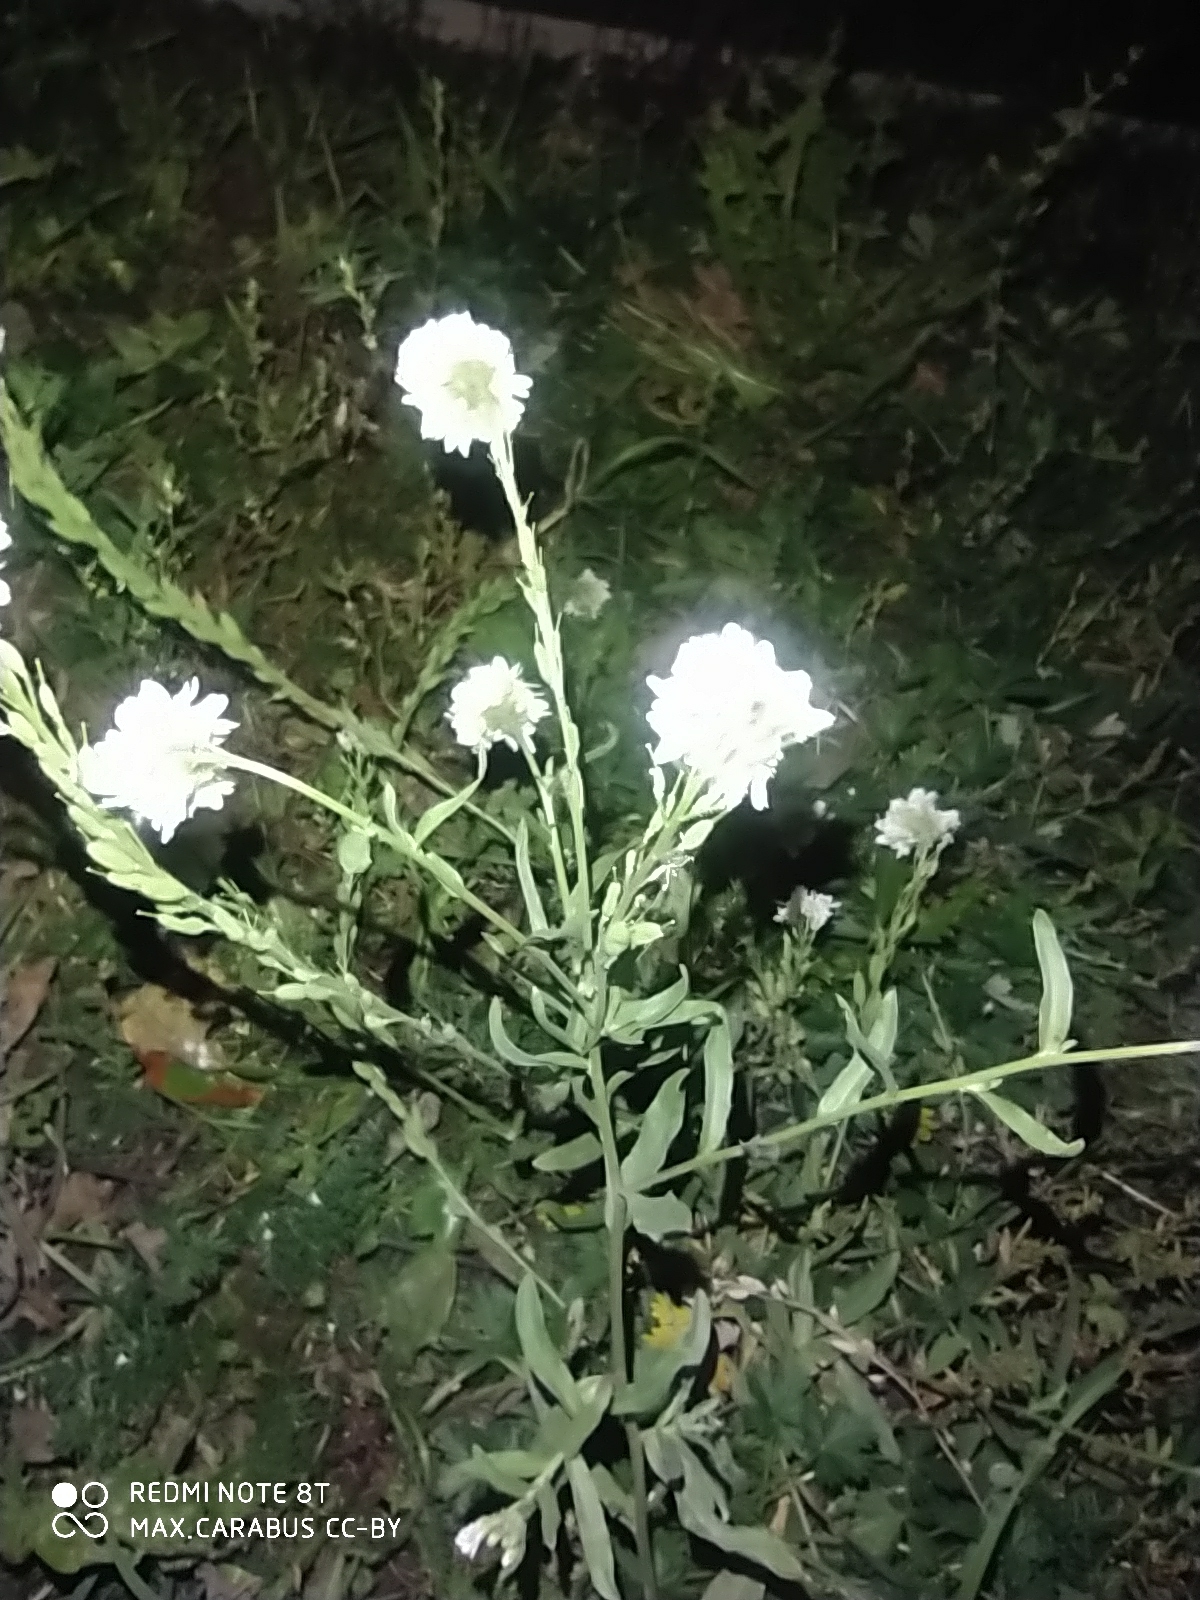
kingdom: Plantae
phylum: Tracheophyta
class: Magnoliopsida
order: Brassicales
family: Brassicaceae
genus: Berteroa
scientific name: Berteroa incana
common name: Hoary alison
